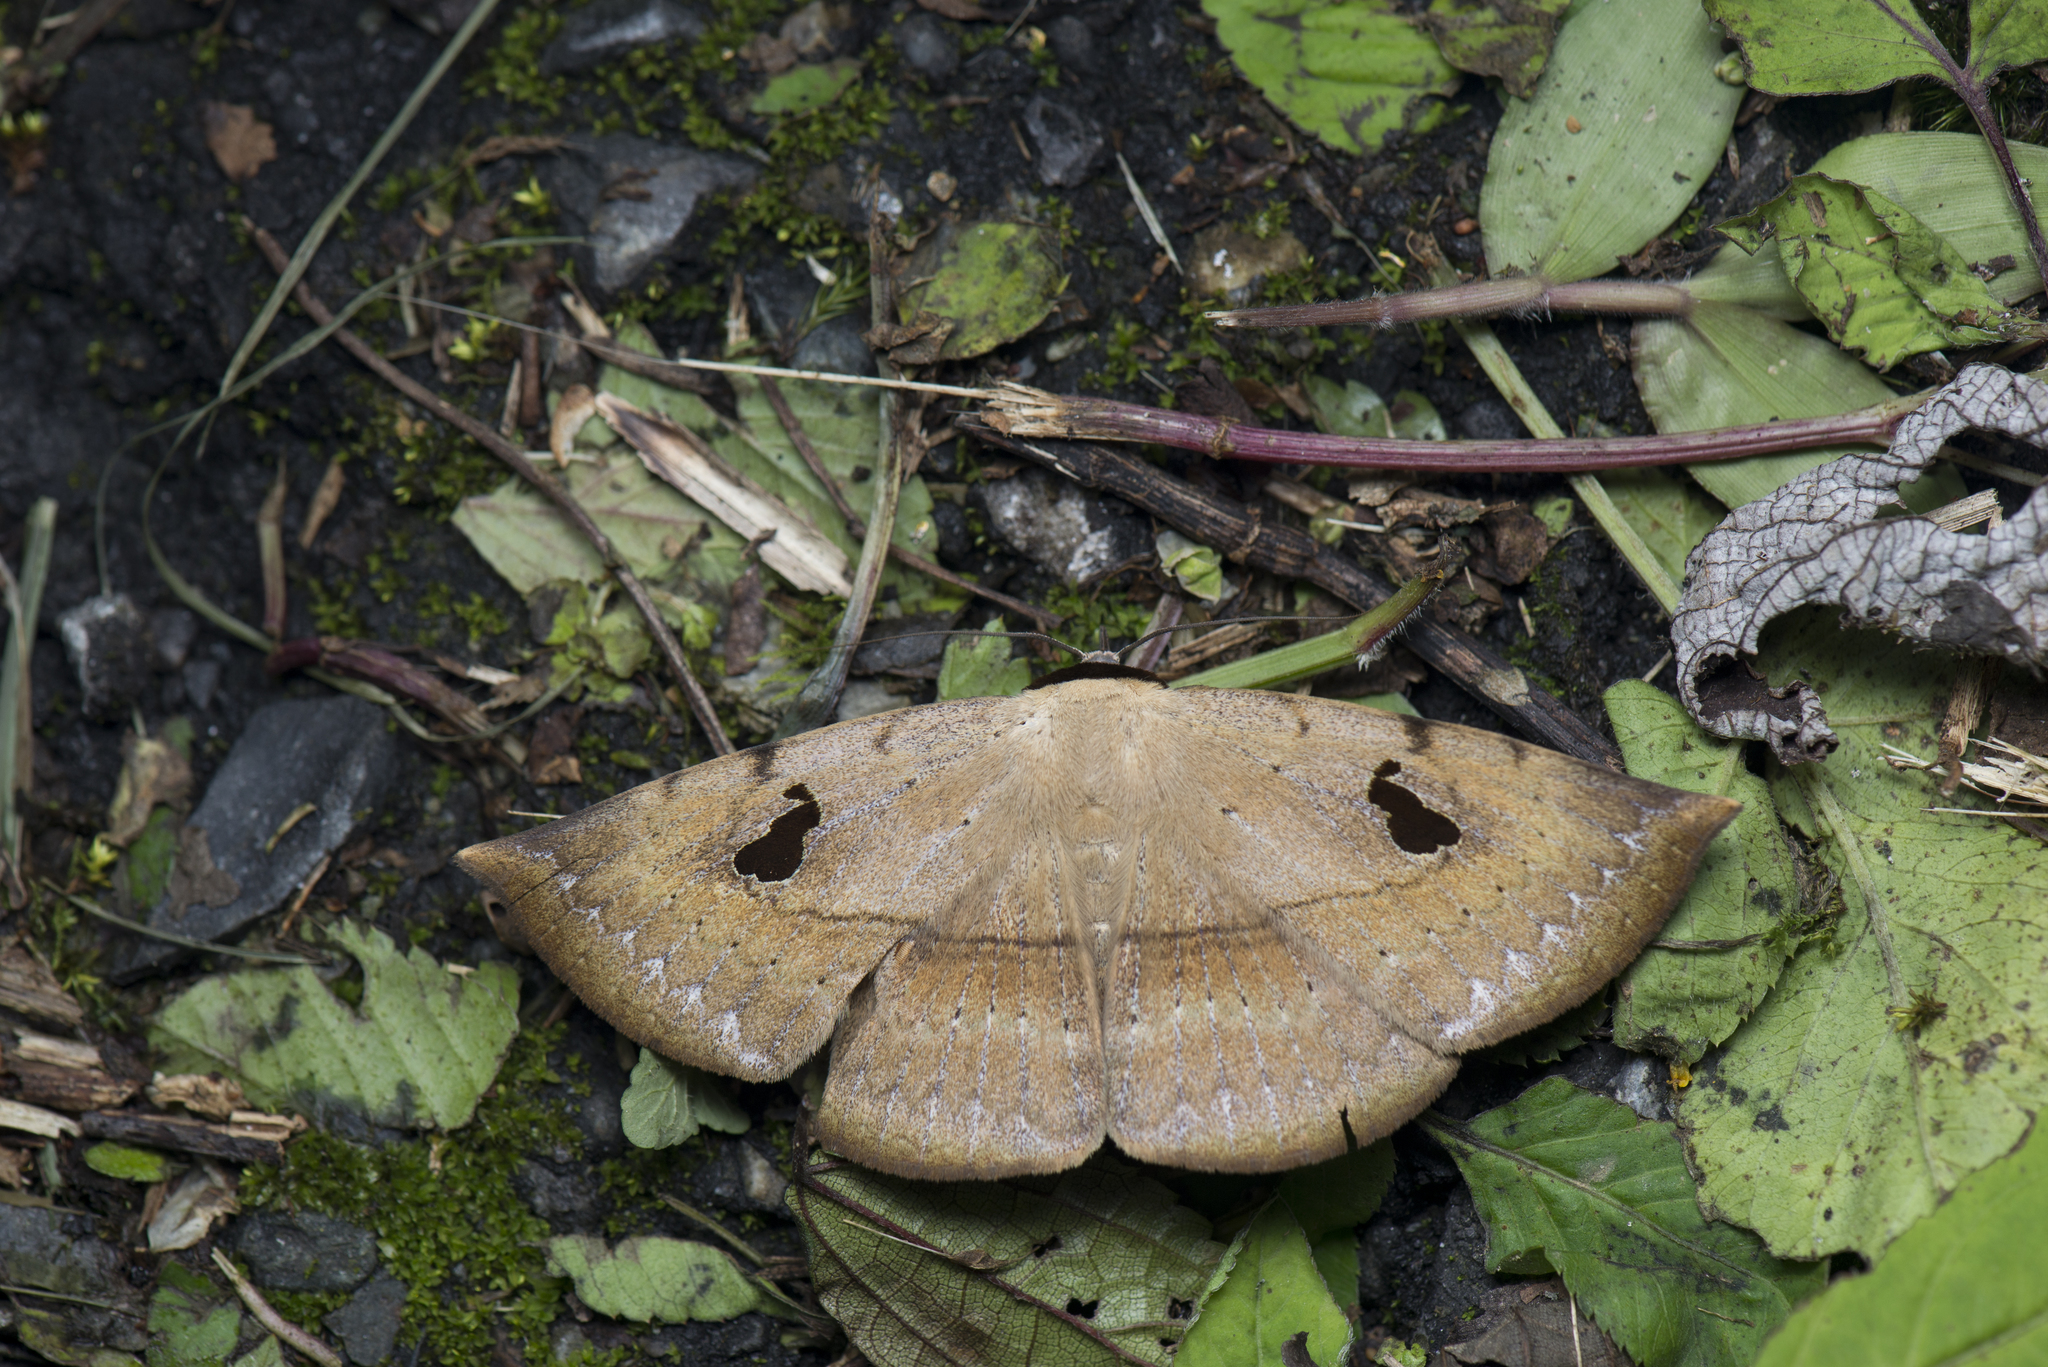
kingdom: Animalia
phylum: Arthropoda
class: Insecta
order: Lepidoptera
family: Erebidae
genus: Hypopyra
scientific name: Hypopyra ossigera
